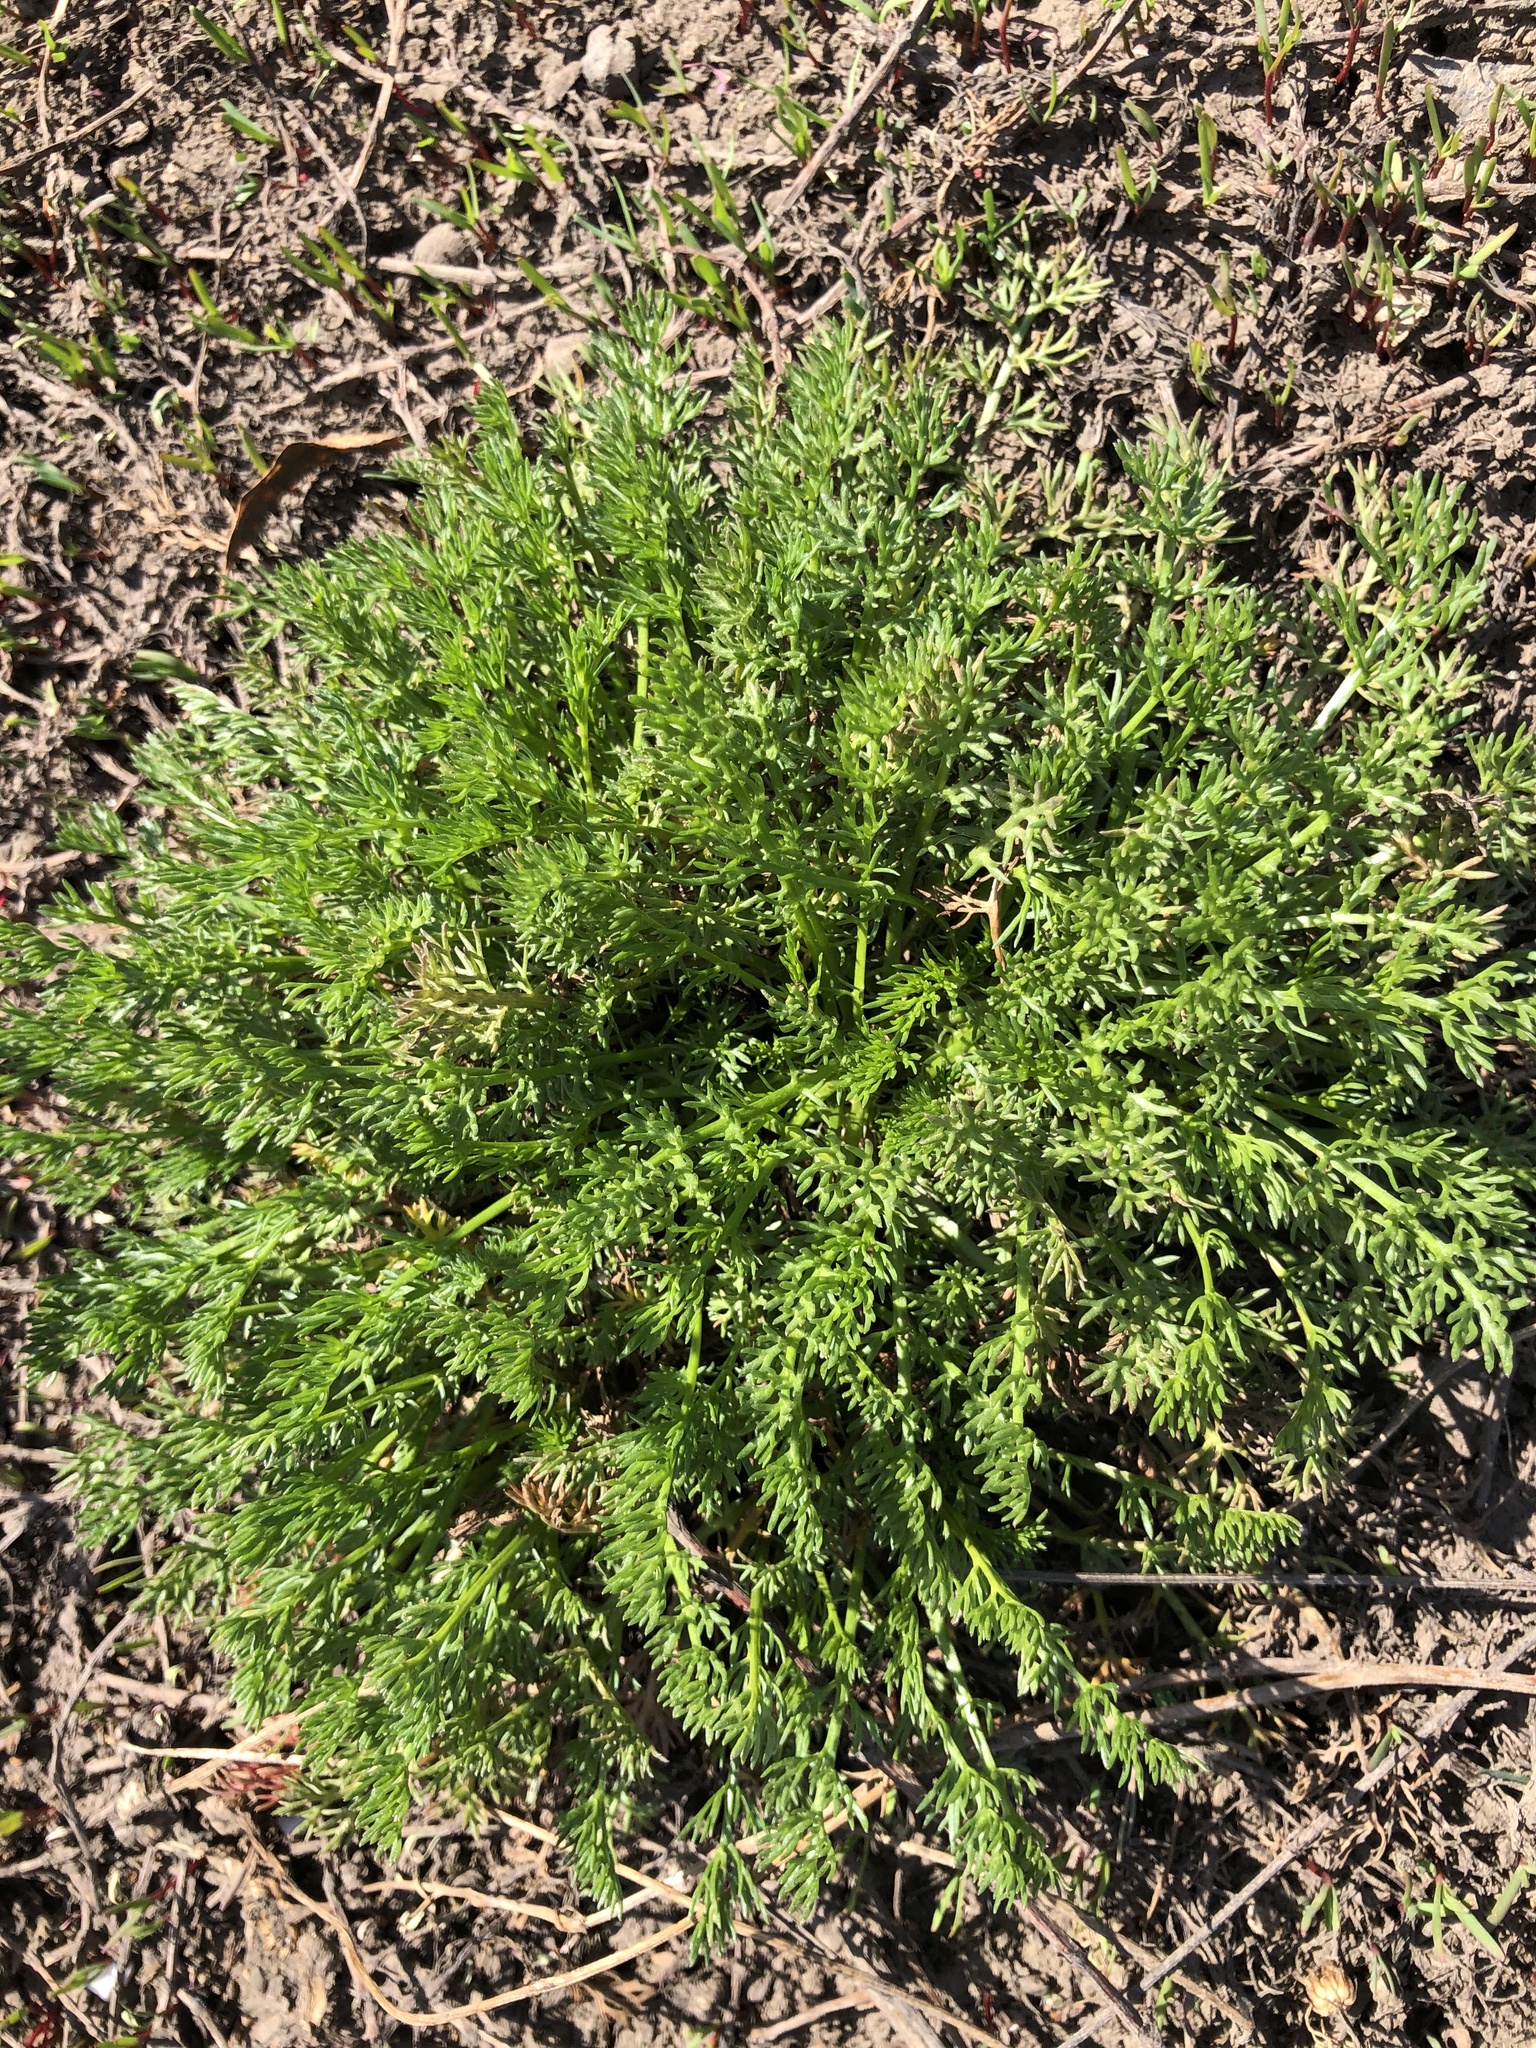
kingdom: Plantae
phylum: Tracheophyta
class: Magnoliopsida
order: Asterales
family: Asteraceae
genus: Tripleurospermum
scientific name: Tripleurospermum inodorum
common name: Scentless mayweed
